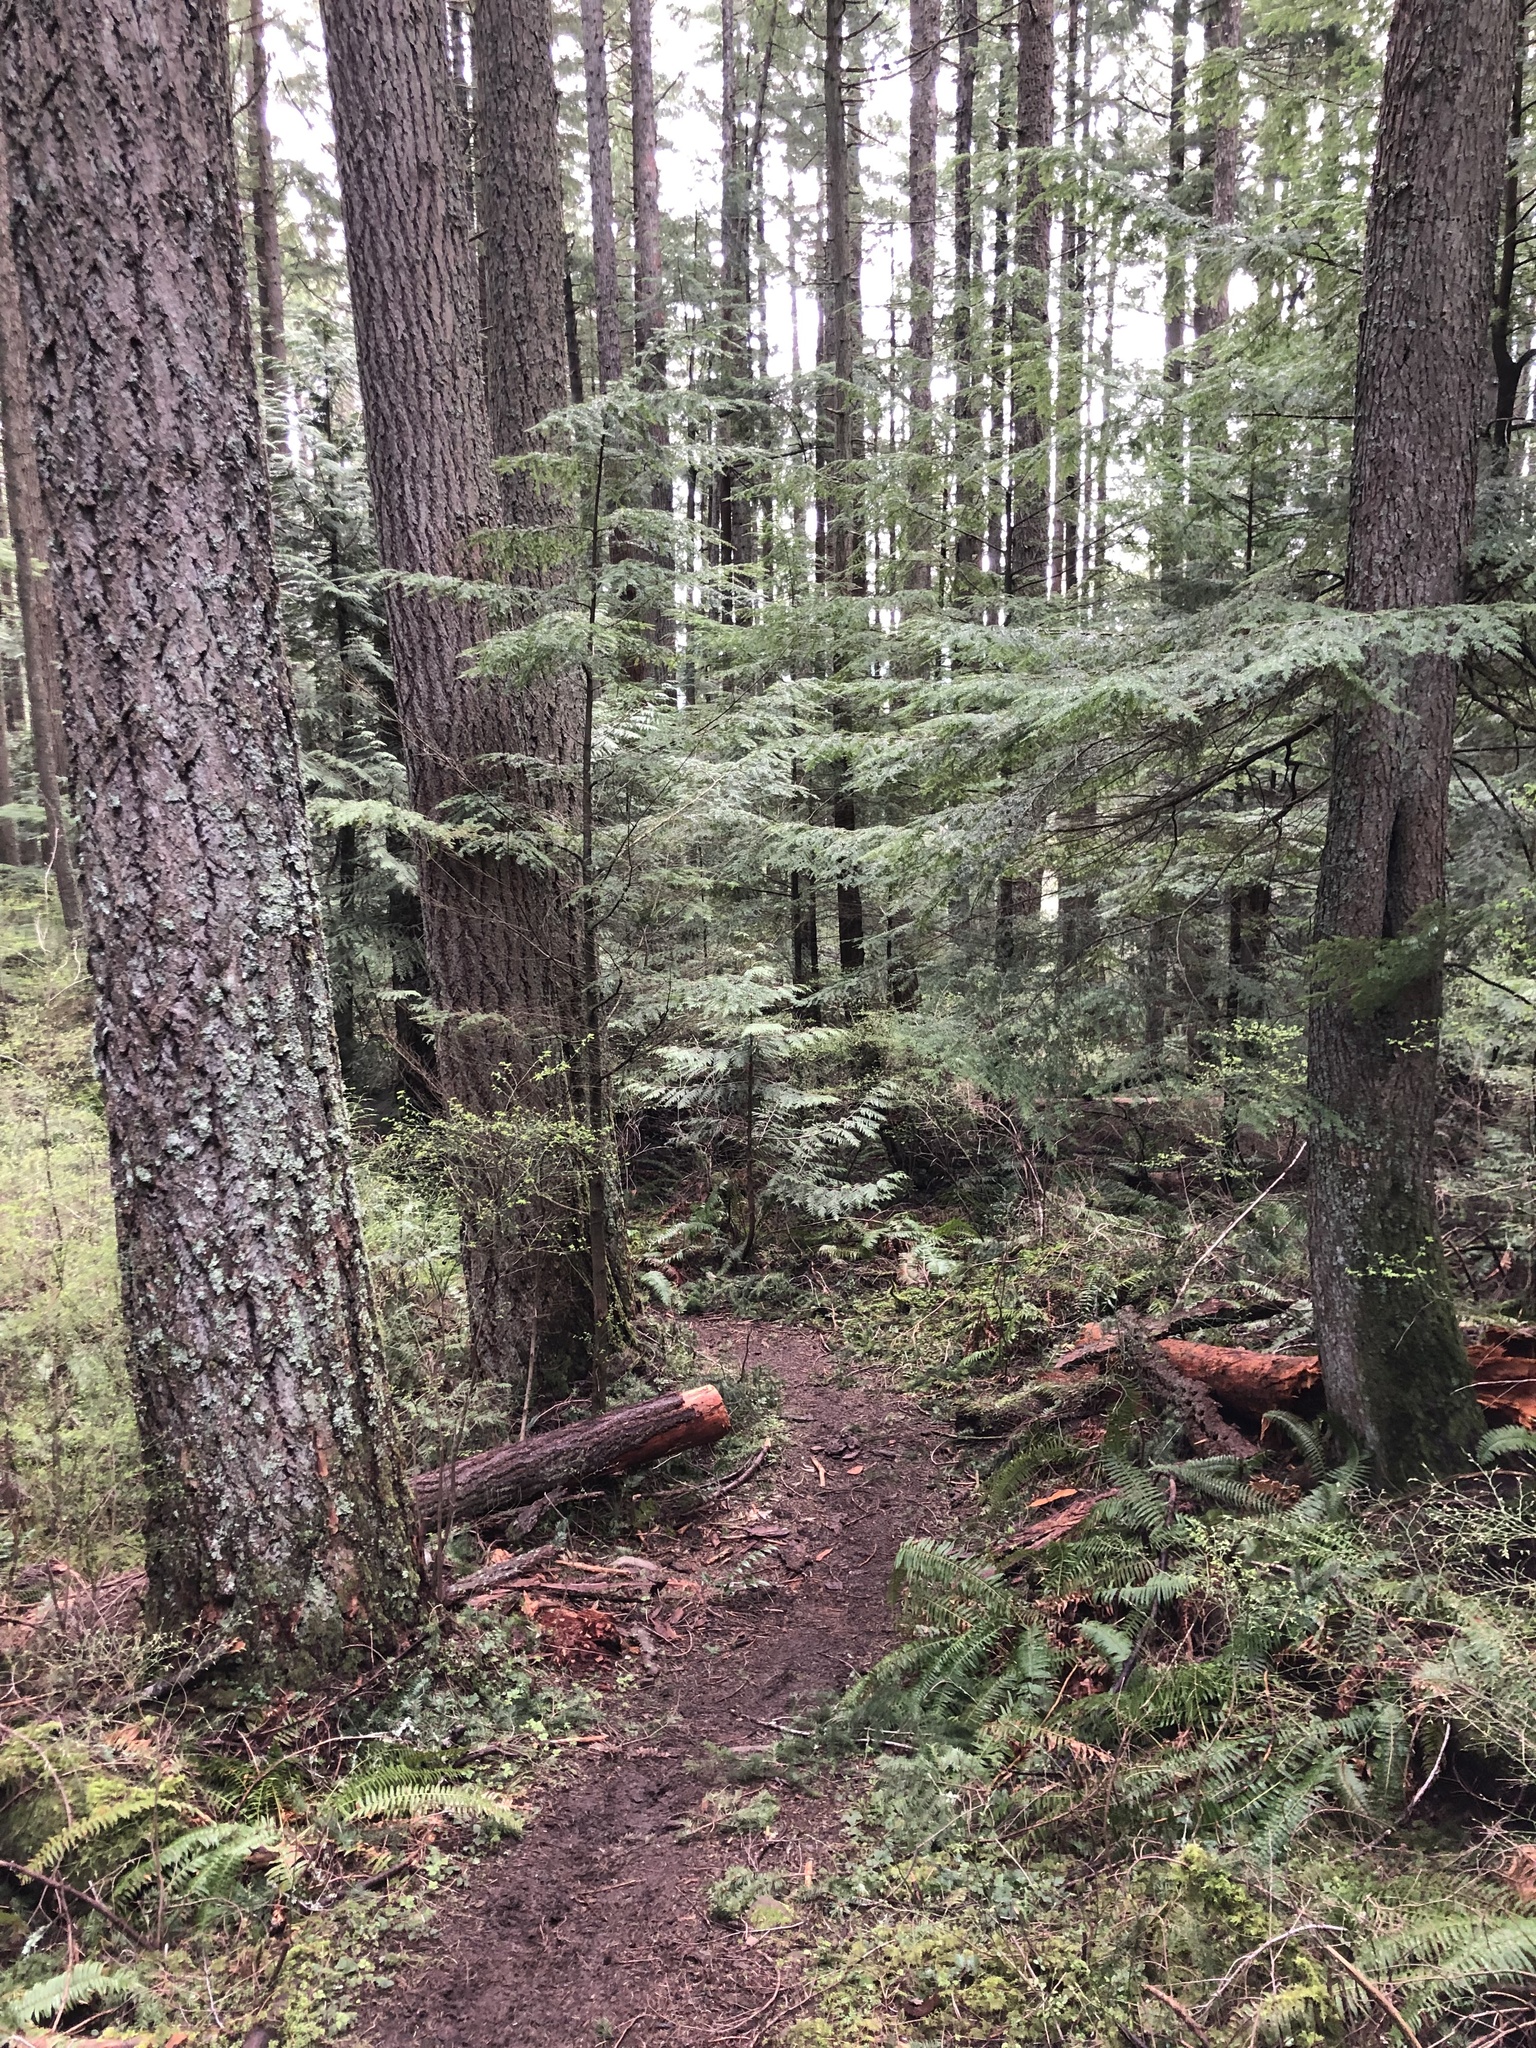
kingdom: Plantae
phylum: Tracheophyta
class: Pinopsida
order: Pinales
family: Pinaceae
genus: Tsuga
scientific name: Tsuga heterophylla
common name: Western hemlock
